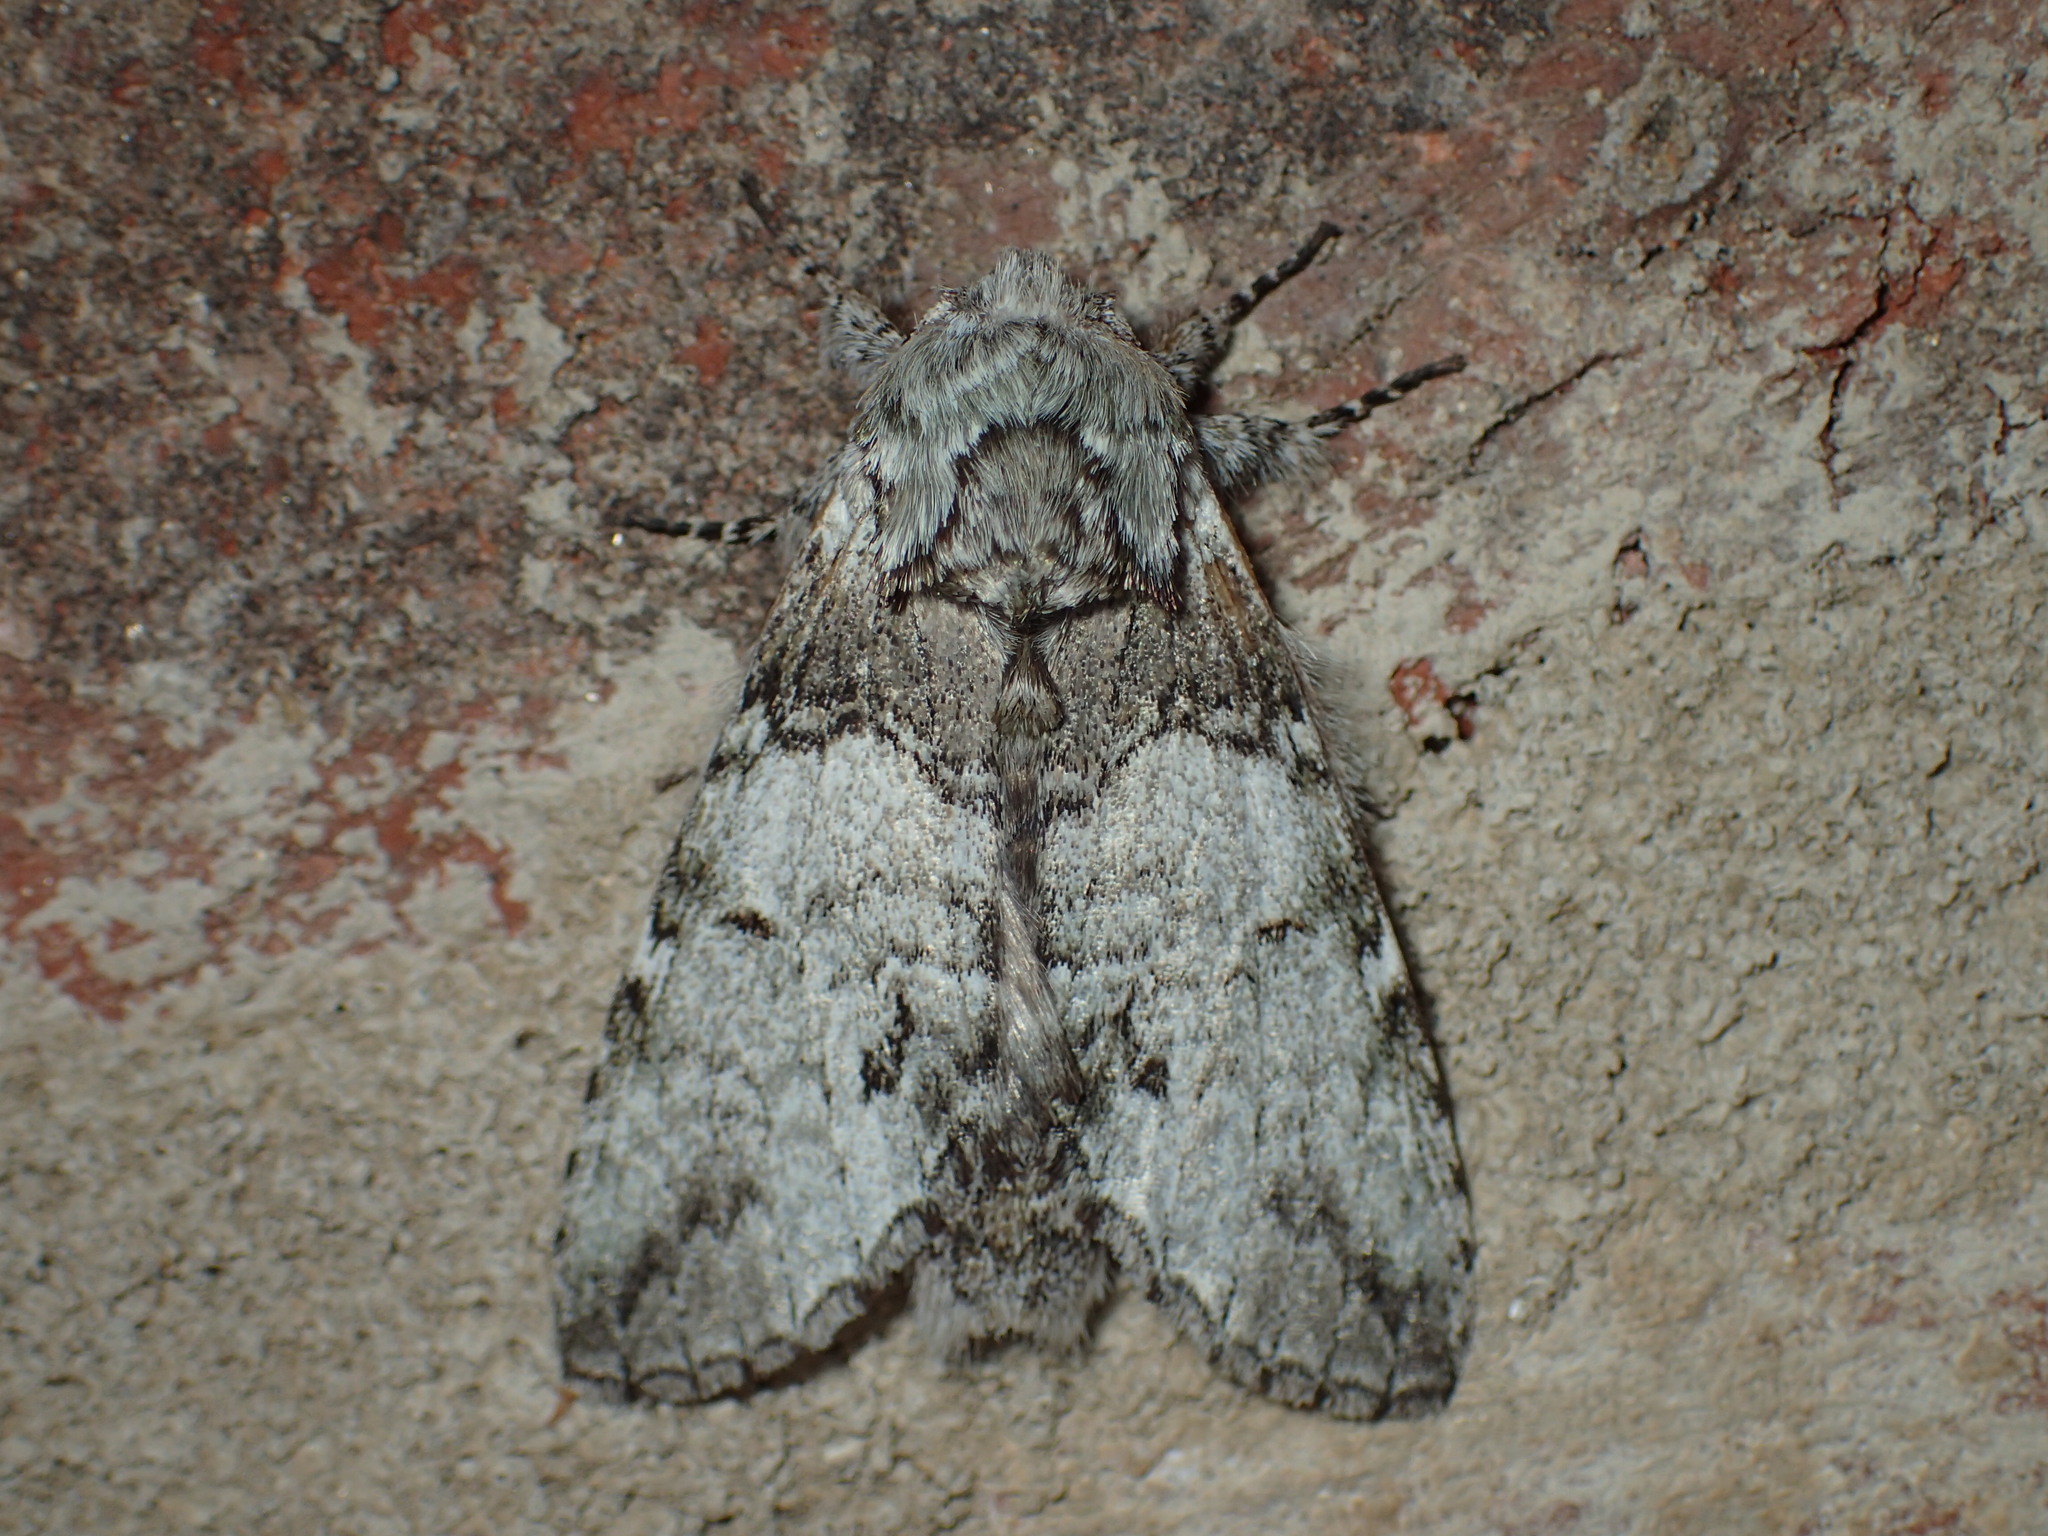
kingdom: Animalia
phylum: Arthropoda
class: Insecta
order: Lepidoptera
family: Notodontidae
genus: Macrurocampa
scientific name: Macrurocampa marthesia
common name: Mottled prominent
